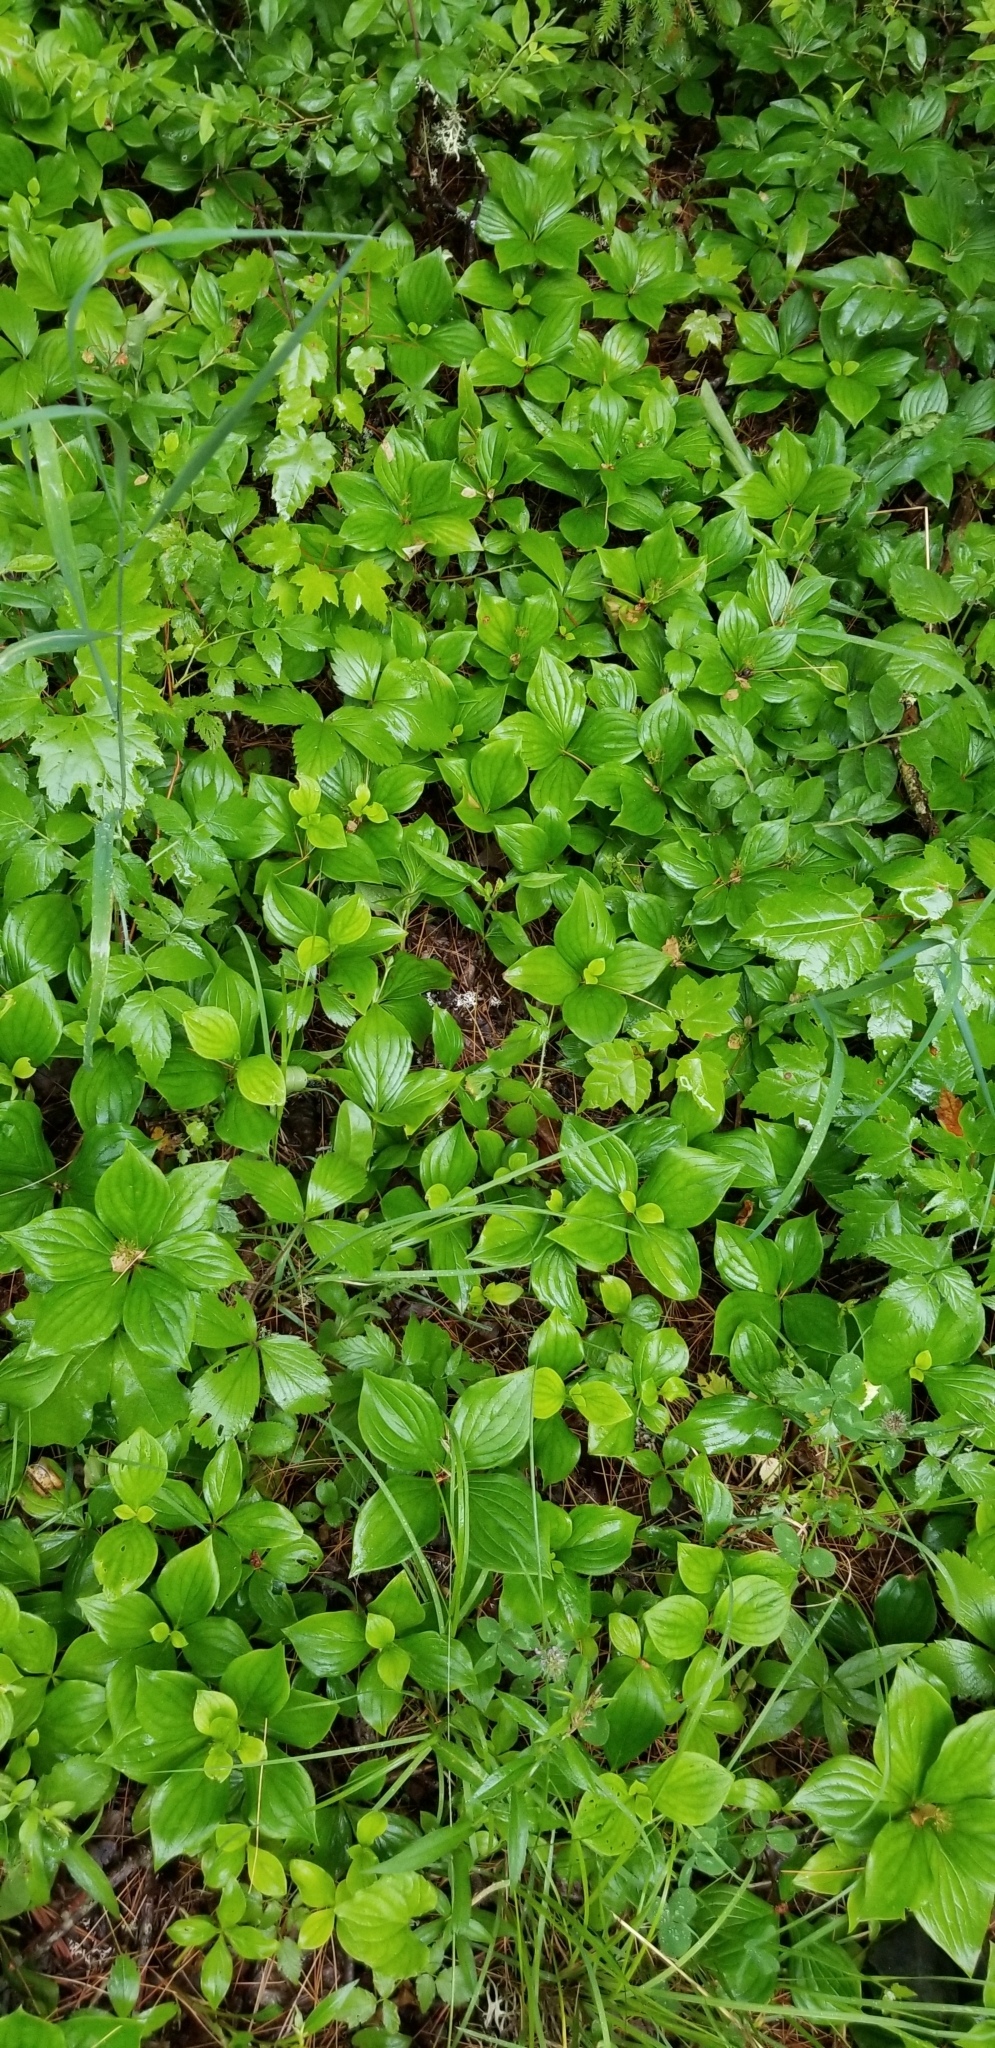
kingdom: Plantae
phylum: Tracheophyta
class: Magnoliopsida
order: Cornales
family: Cornaceae
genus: Cornus
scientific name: Cornus canadensis
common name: Creeping dogwood
